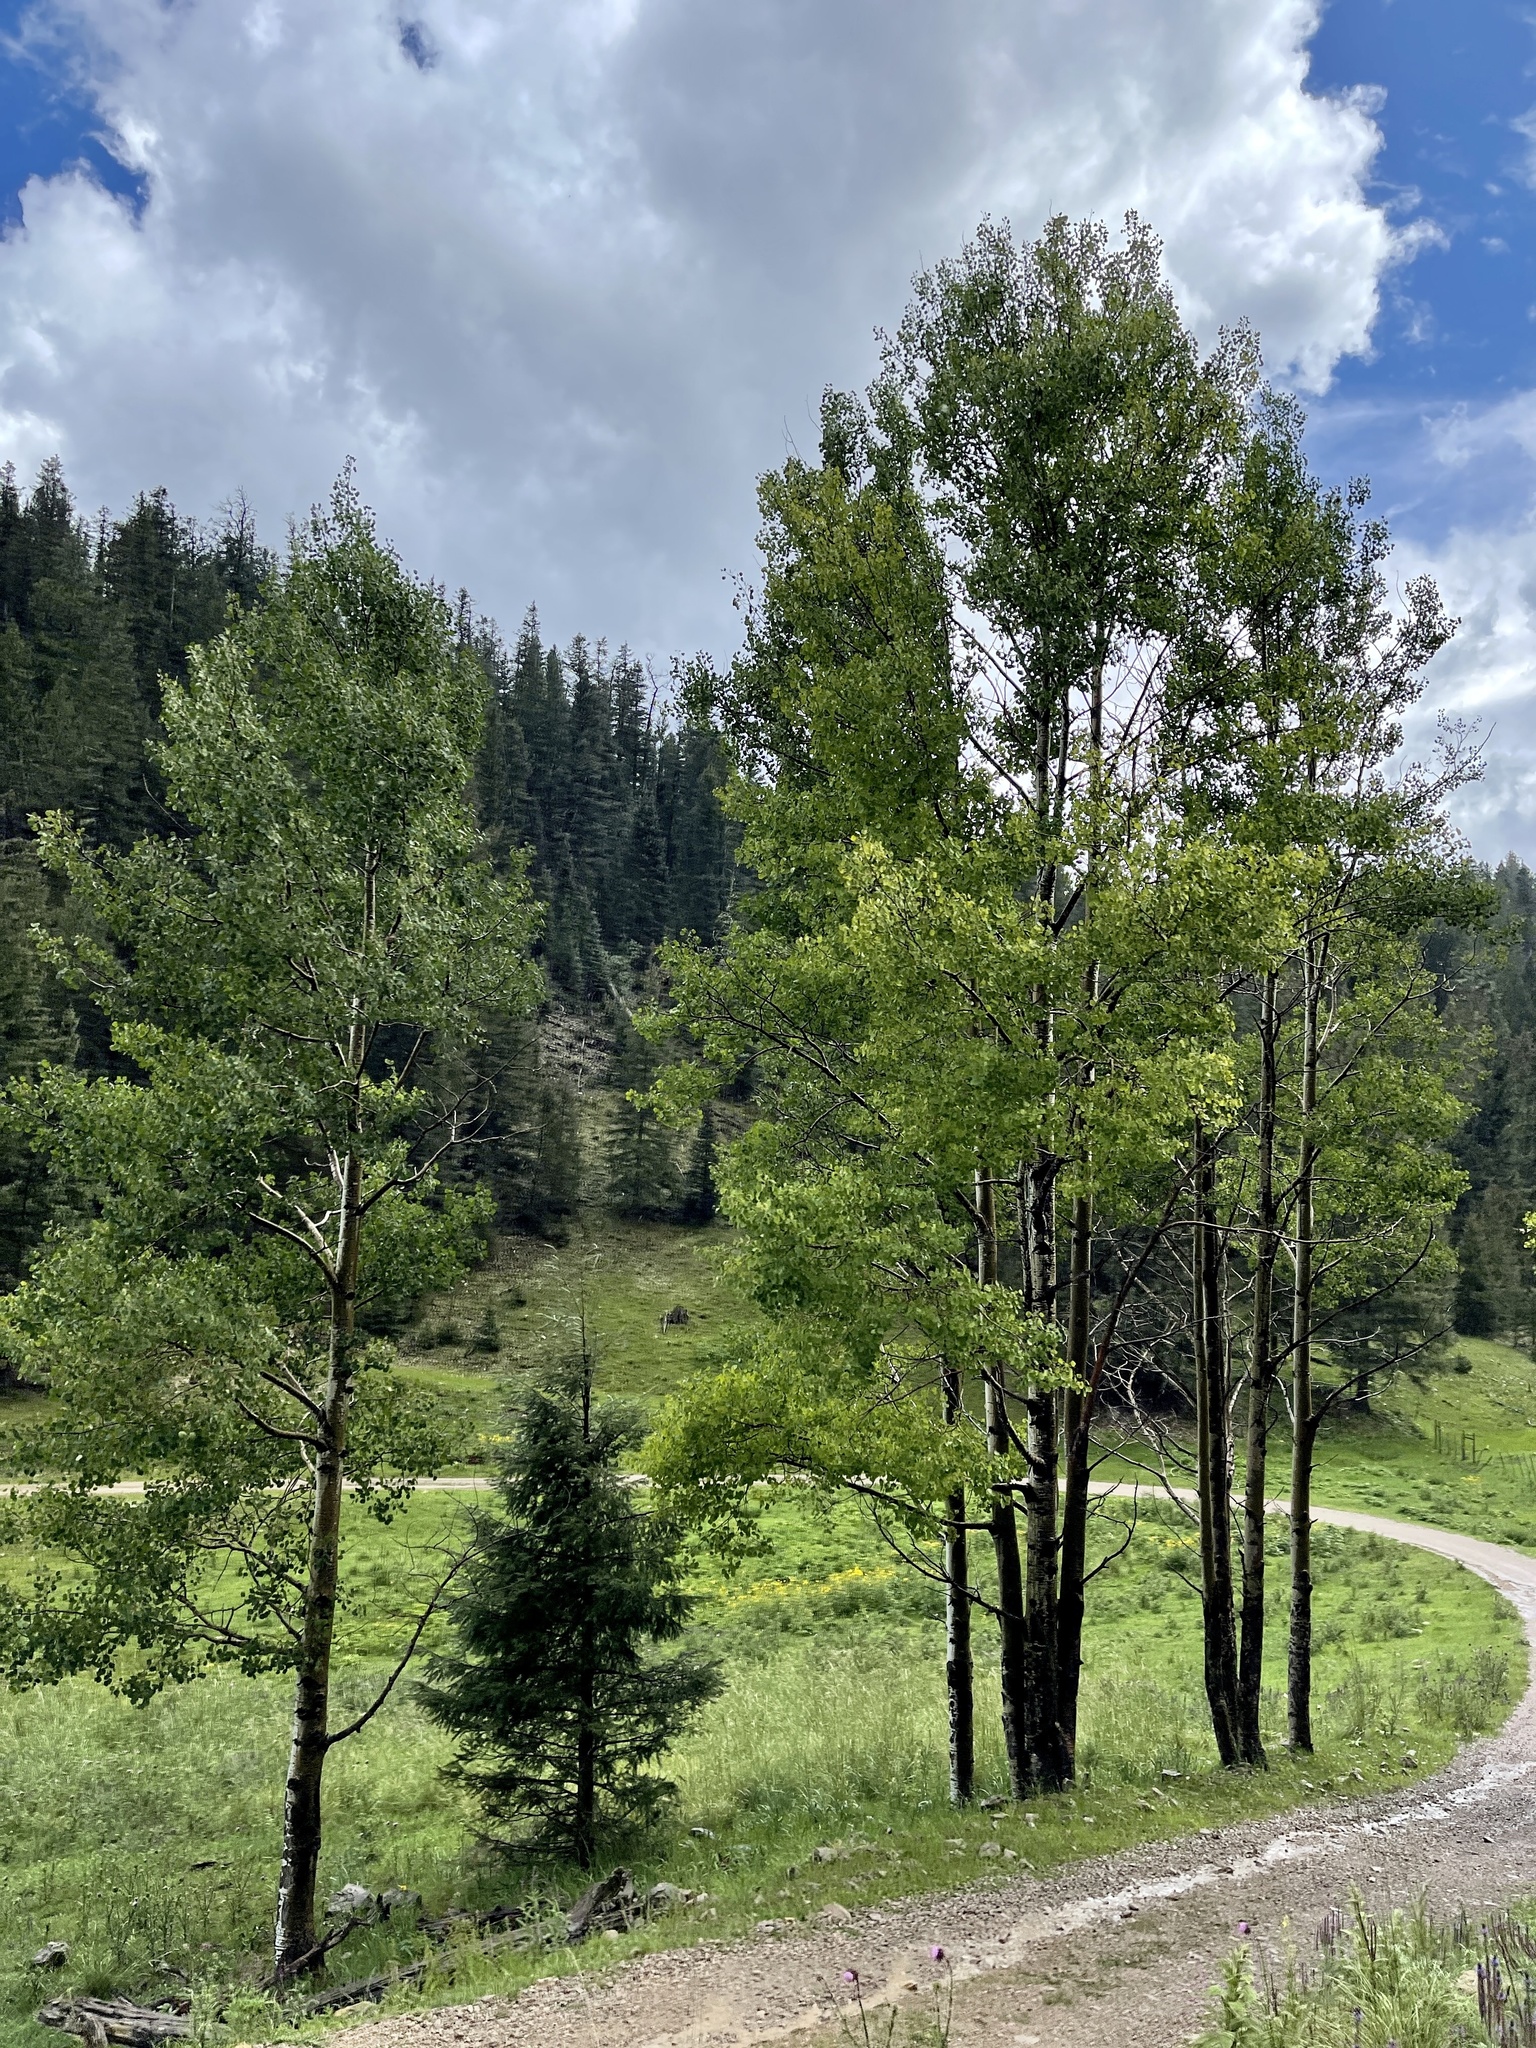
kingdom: Plantae
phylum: Tracheophyta
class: Magnoliopsida
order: Malpighiales
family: Salicaceae
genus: Populus
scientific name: Populus tremuloides
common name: Quaking aspen
